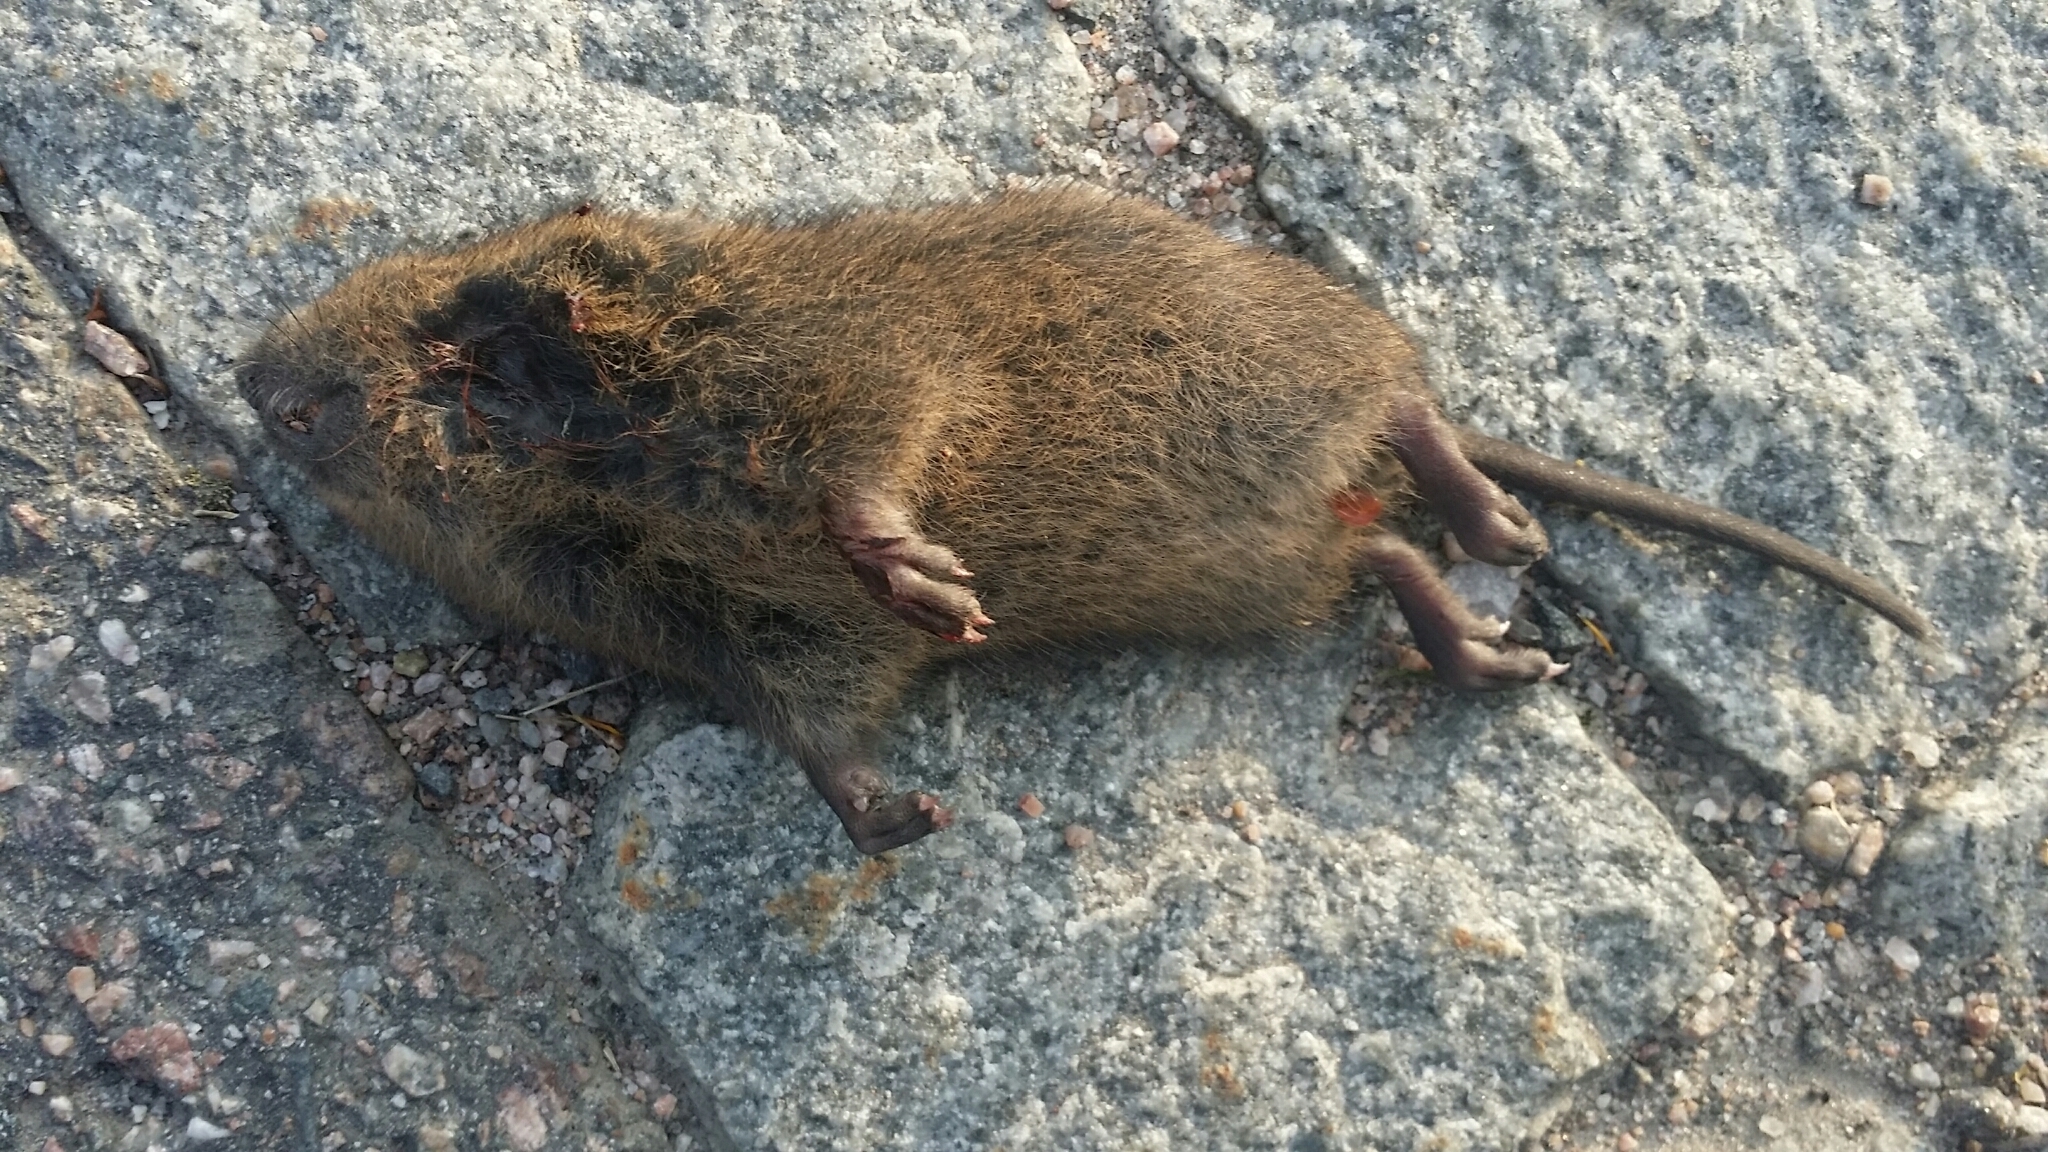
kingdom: Animalia
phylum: Chordata
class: Mammalia
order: Rodentia
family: Cricetidae
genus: Arvicola
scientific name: Arvicola amphibius
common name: European water vole
